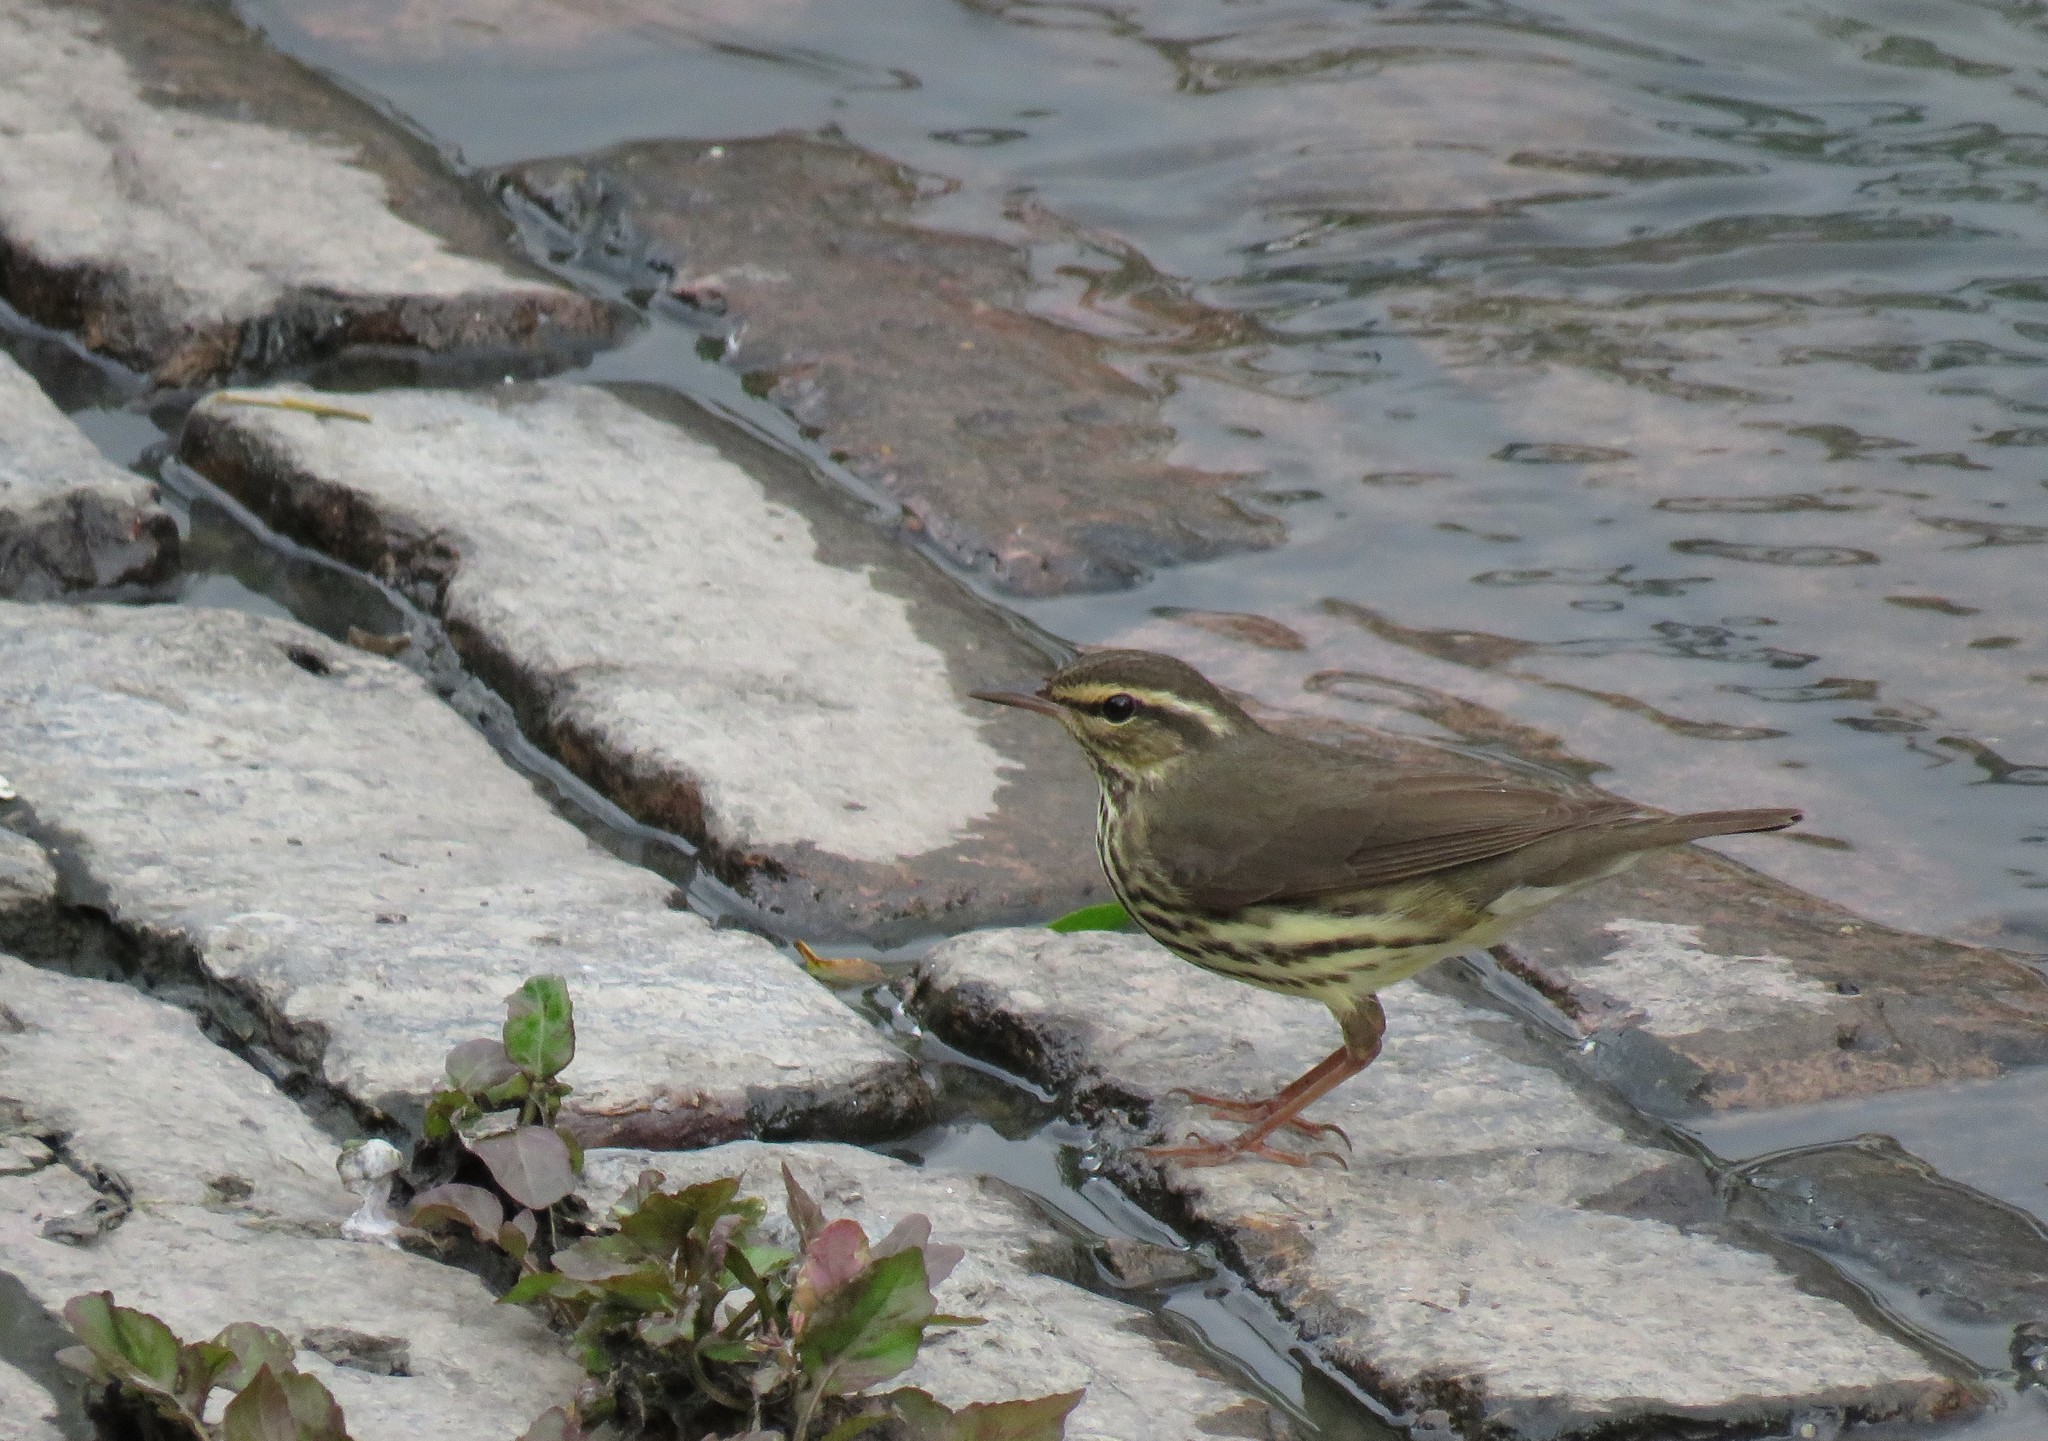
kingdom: Animalia
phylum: Chordata
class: Aves
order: Passeriformes
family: Parulidae
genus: Parkesia
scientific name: Parkesia noveboracensis
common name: Northern waterthrush
